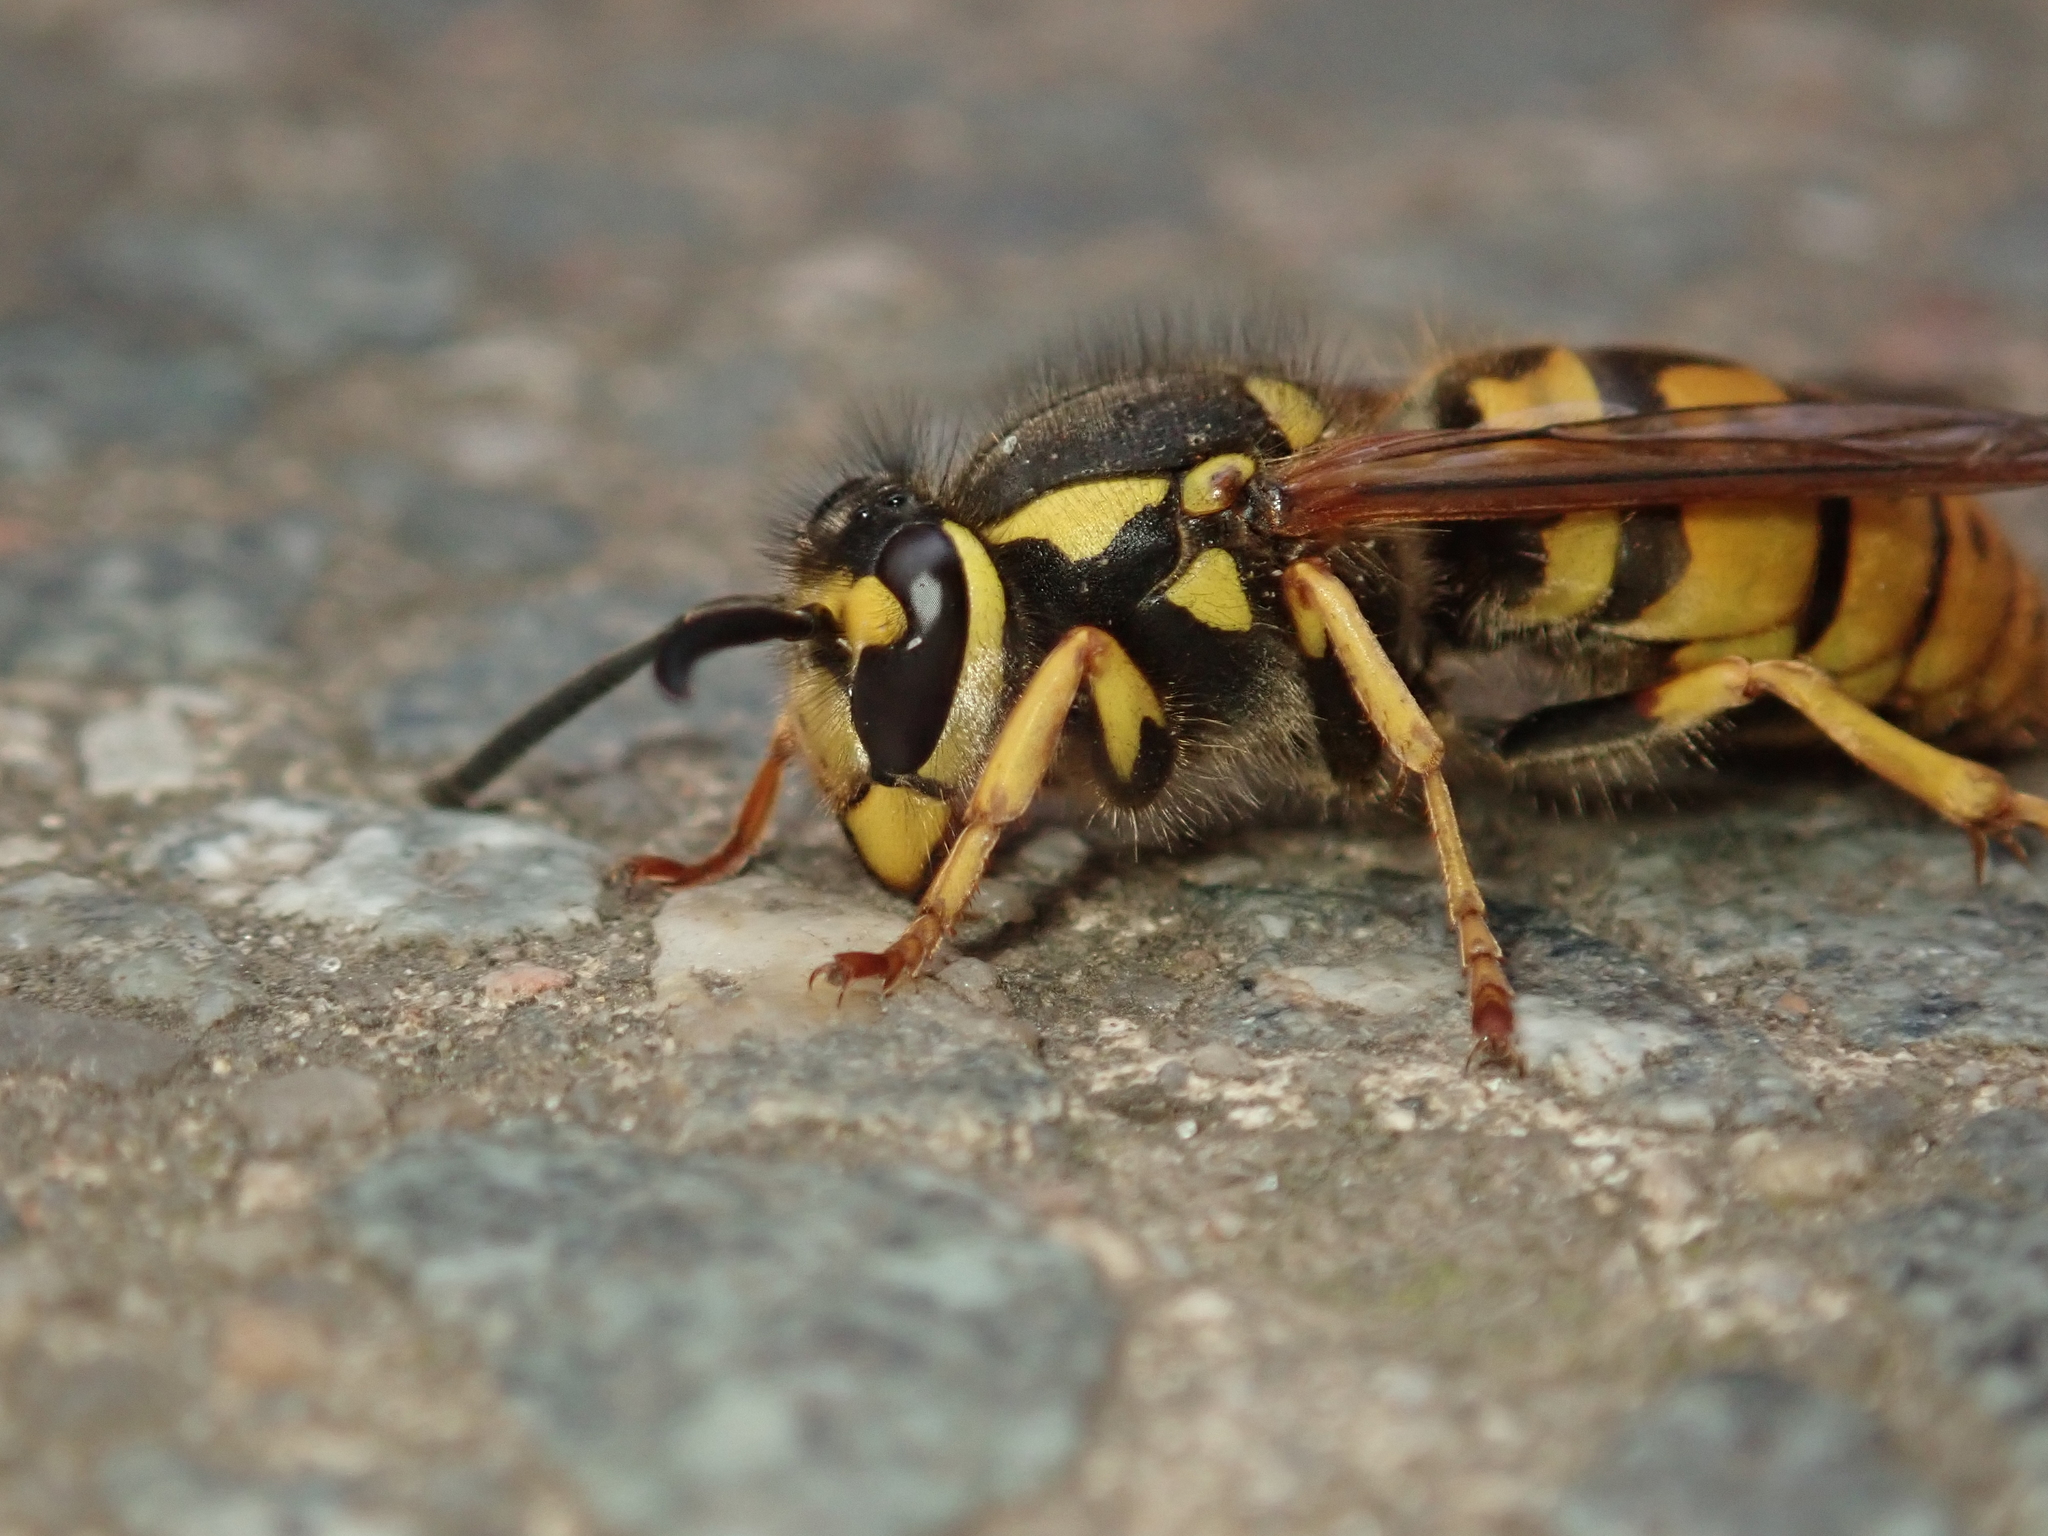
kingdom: Animalia
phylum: Arthropoda
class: Insecta
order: Hymenoptera
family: Vespidae
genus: Vespula
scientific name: Vespula germanica
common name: German wasp
